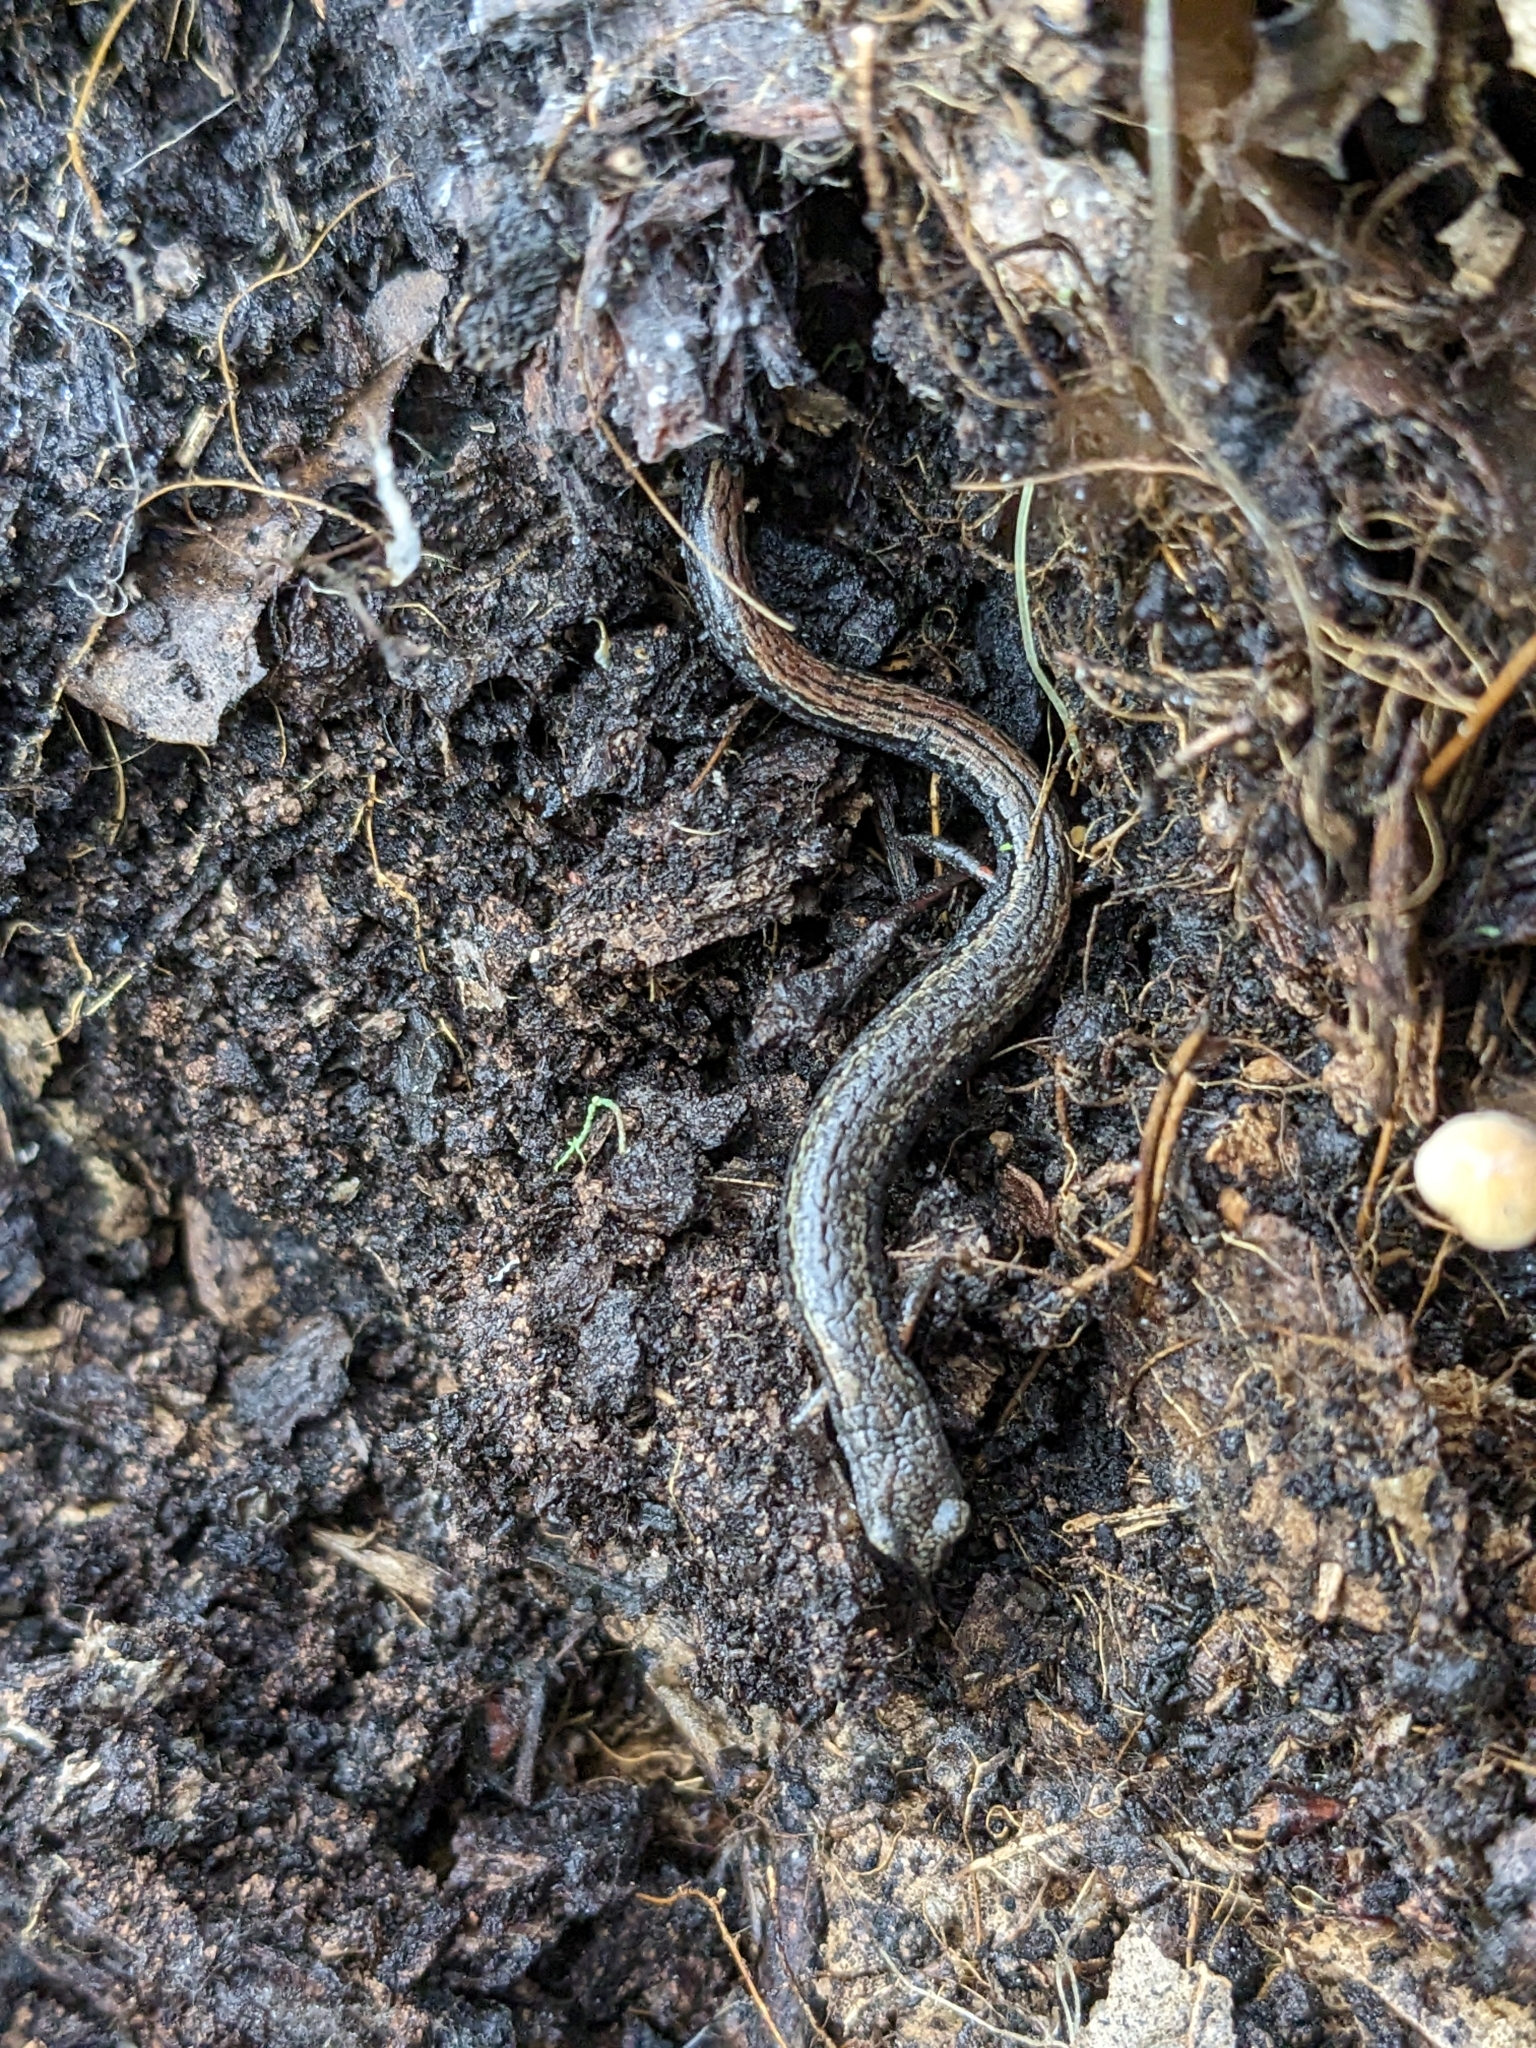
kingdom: Animalia
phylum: Chordata
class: Amphibia
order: Caudata
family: Plethodontidae
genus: Batrachoseps
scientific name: Batrachoseps attenuatus
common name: California slender salamander
